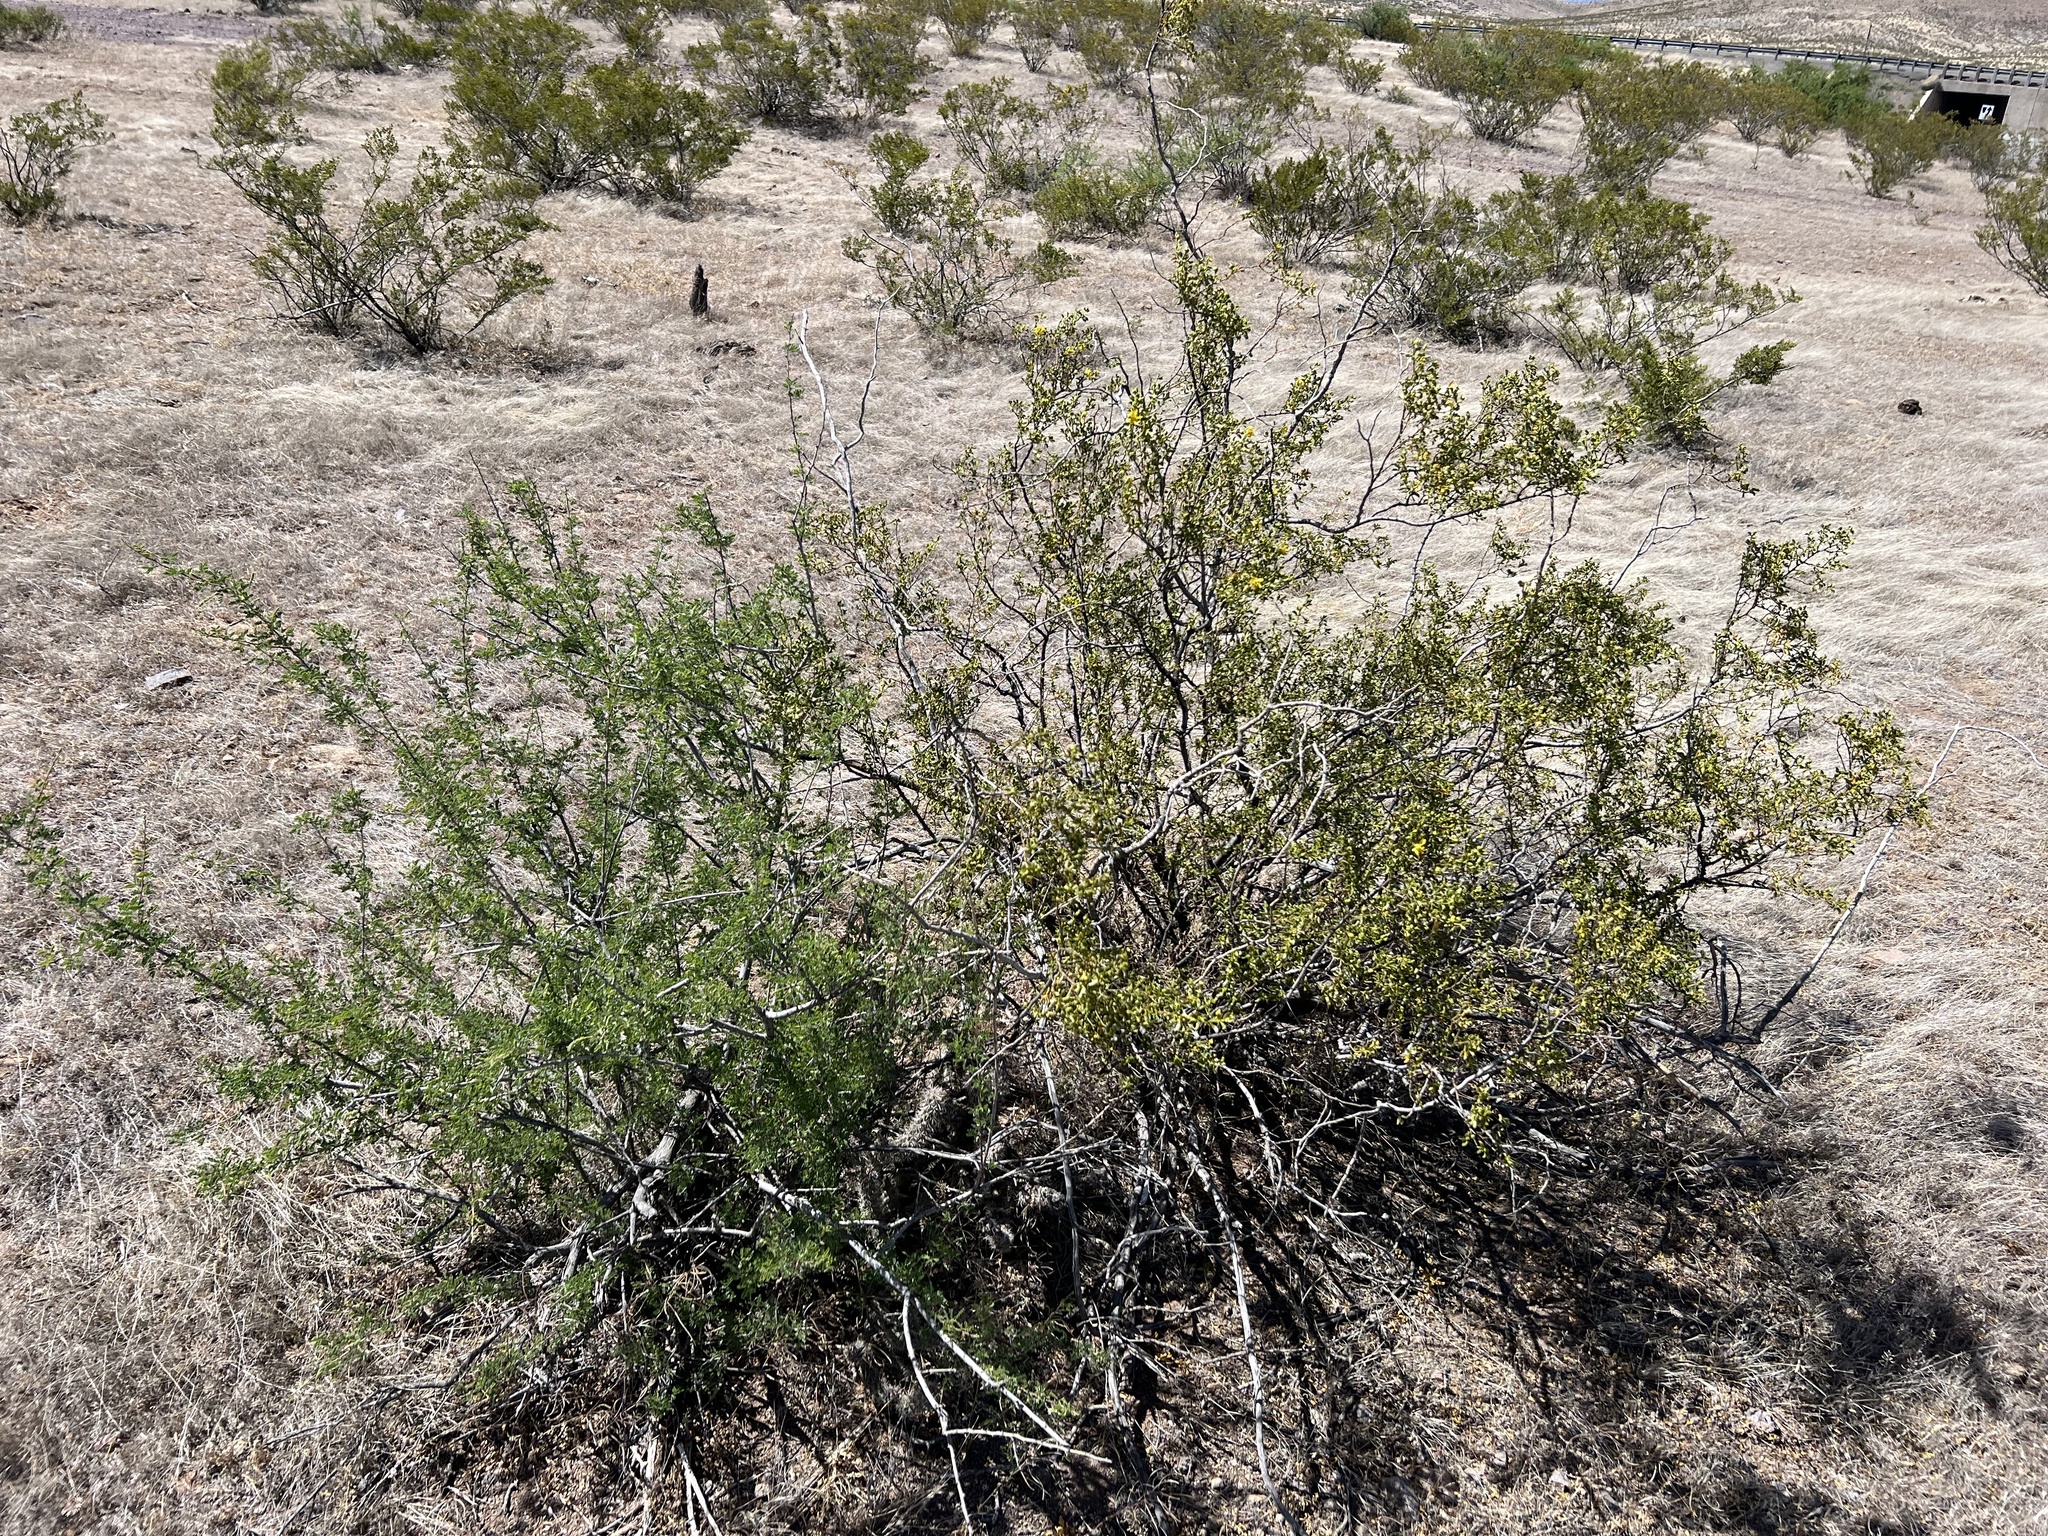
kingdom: Plantae
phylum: Tracheophyta
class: Magnoliopsida
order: Zygophyllales
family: Zygophyllaceae
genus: Larrea
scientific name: Larrea tridentata
